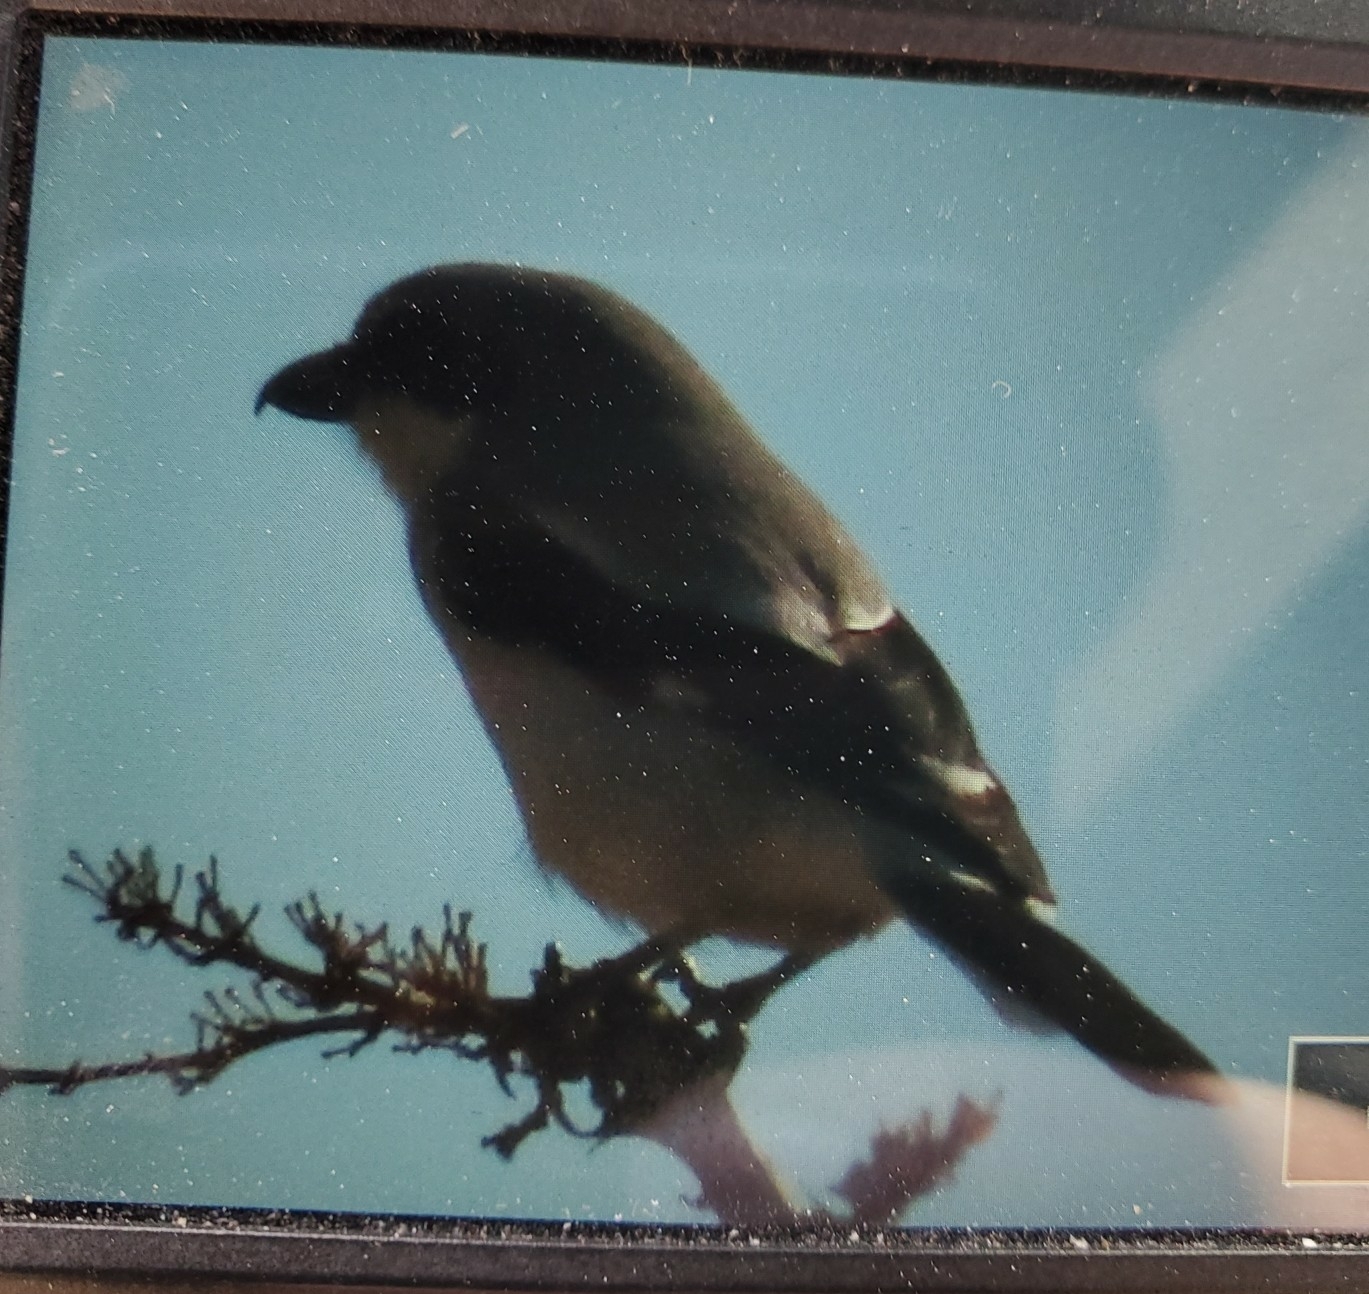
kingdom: Animalia
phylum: Chordata
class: Aves
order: Passeriformes
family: Laniidae
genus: Lanius
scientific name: Lanius ludovicianus
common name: Loggerhead shrike
